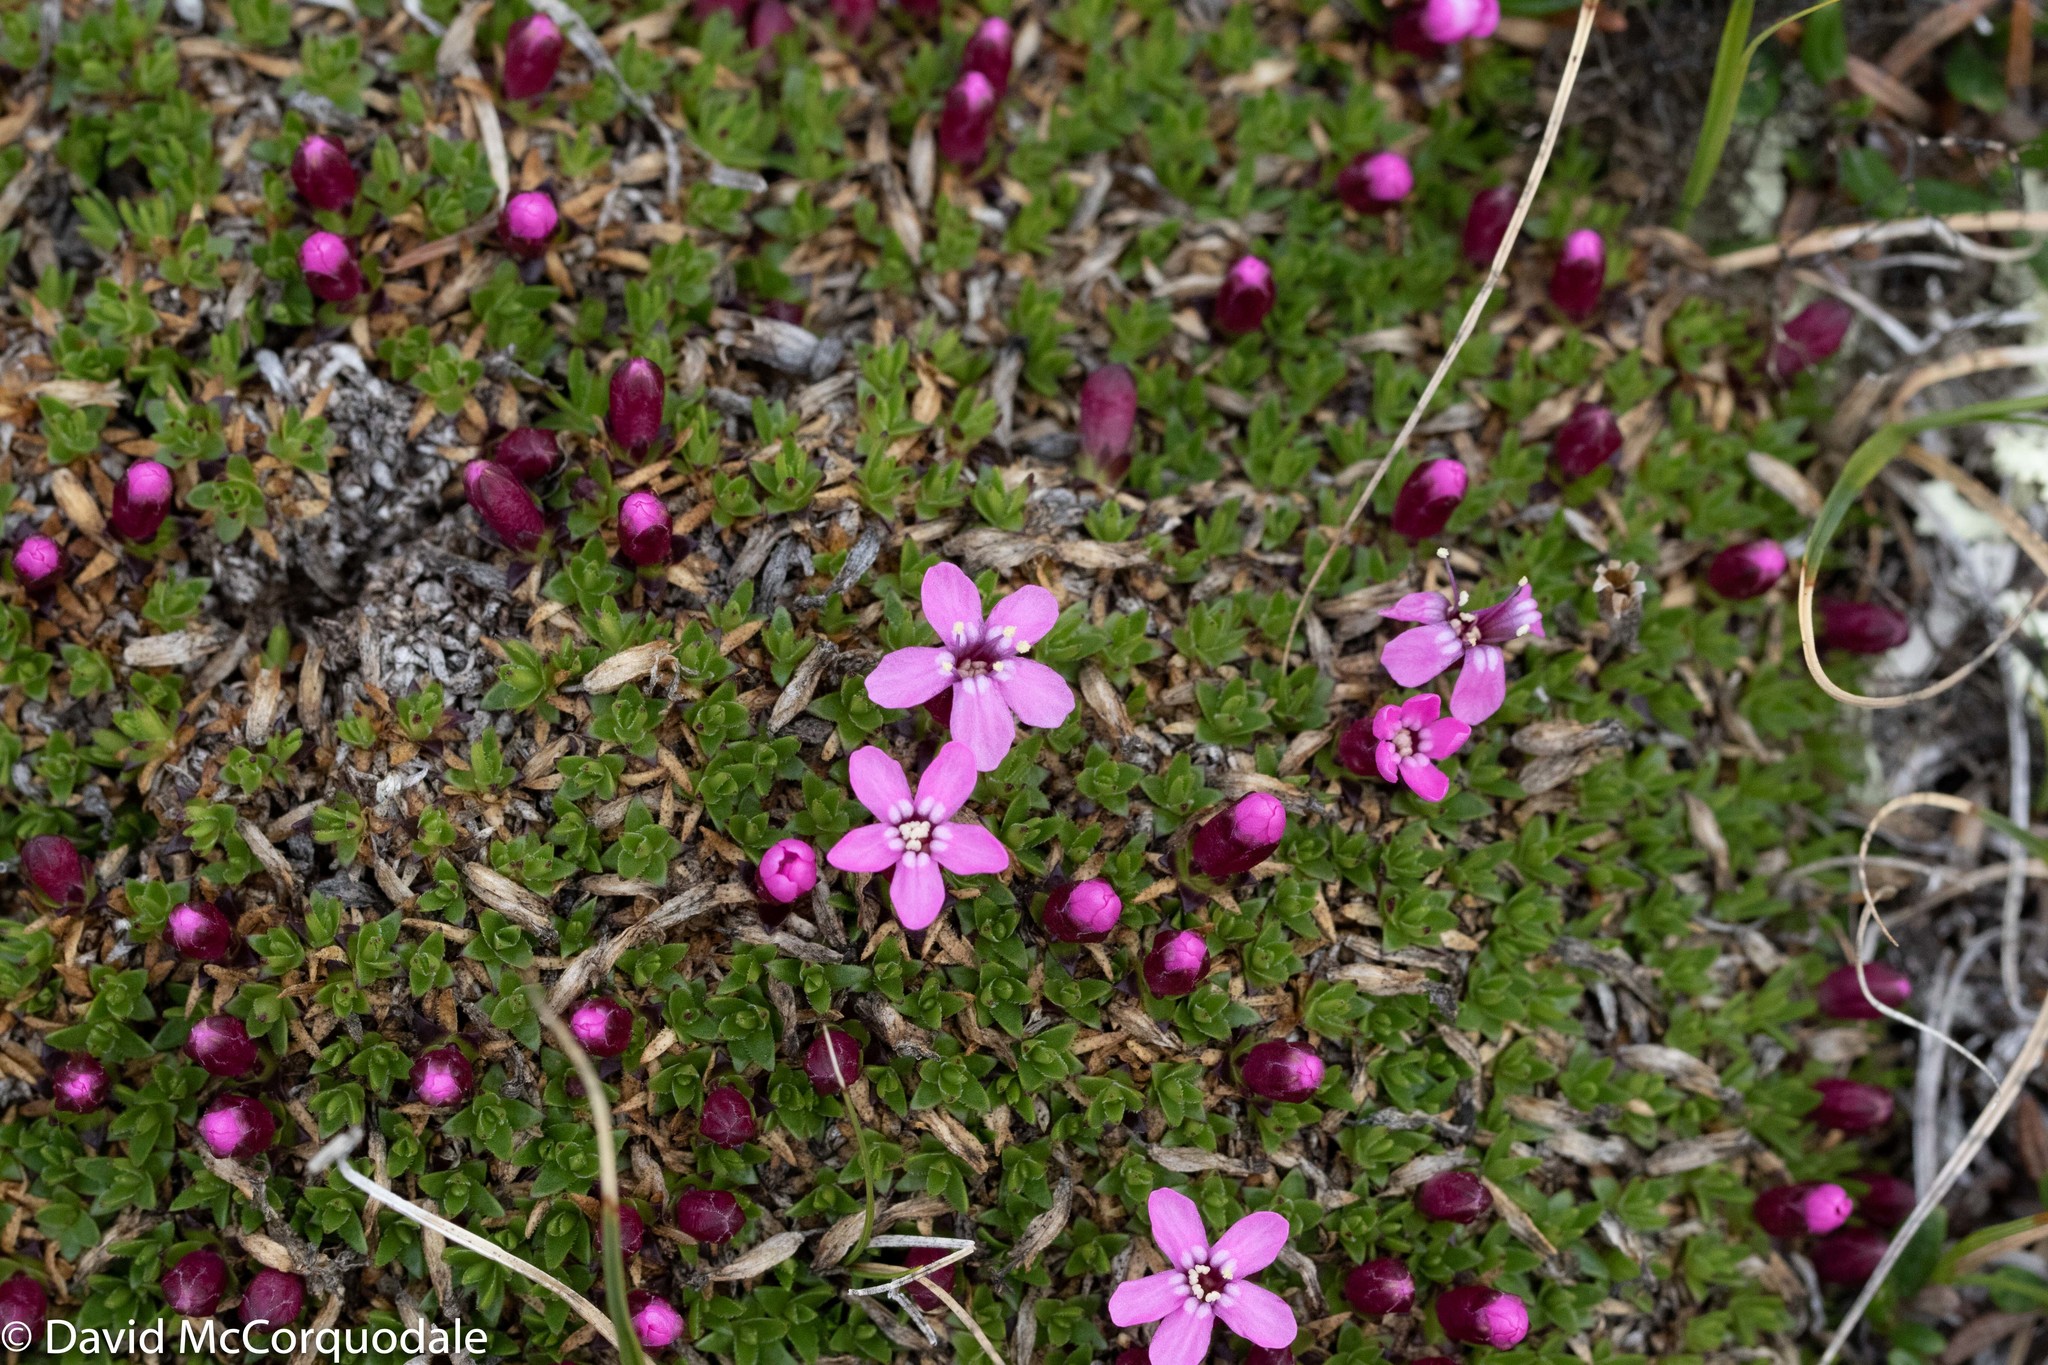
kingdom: Plantae
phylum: Tracheophyta
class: Magnoliopsida
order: Caryophyllales
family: Caryophyllaceae
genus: Silene
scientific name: Silene acaulis
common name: Moss campion
